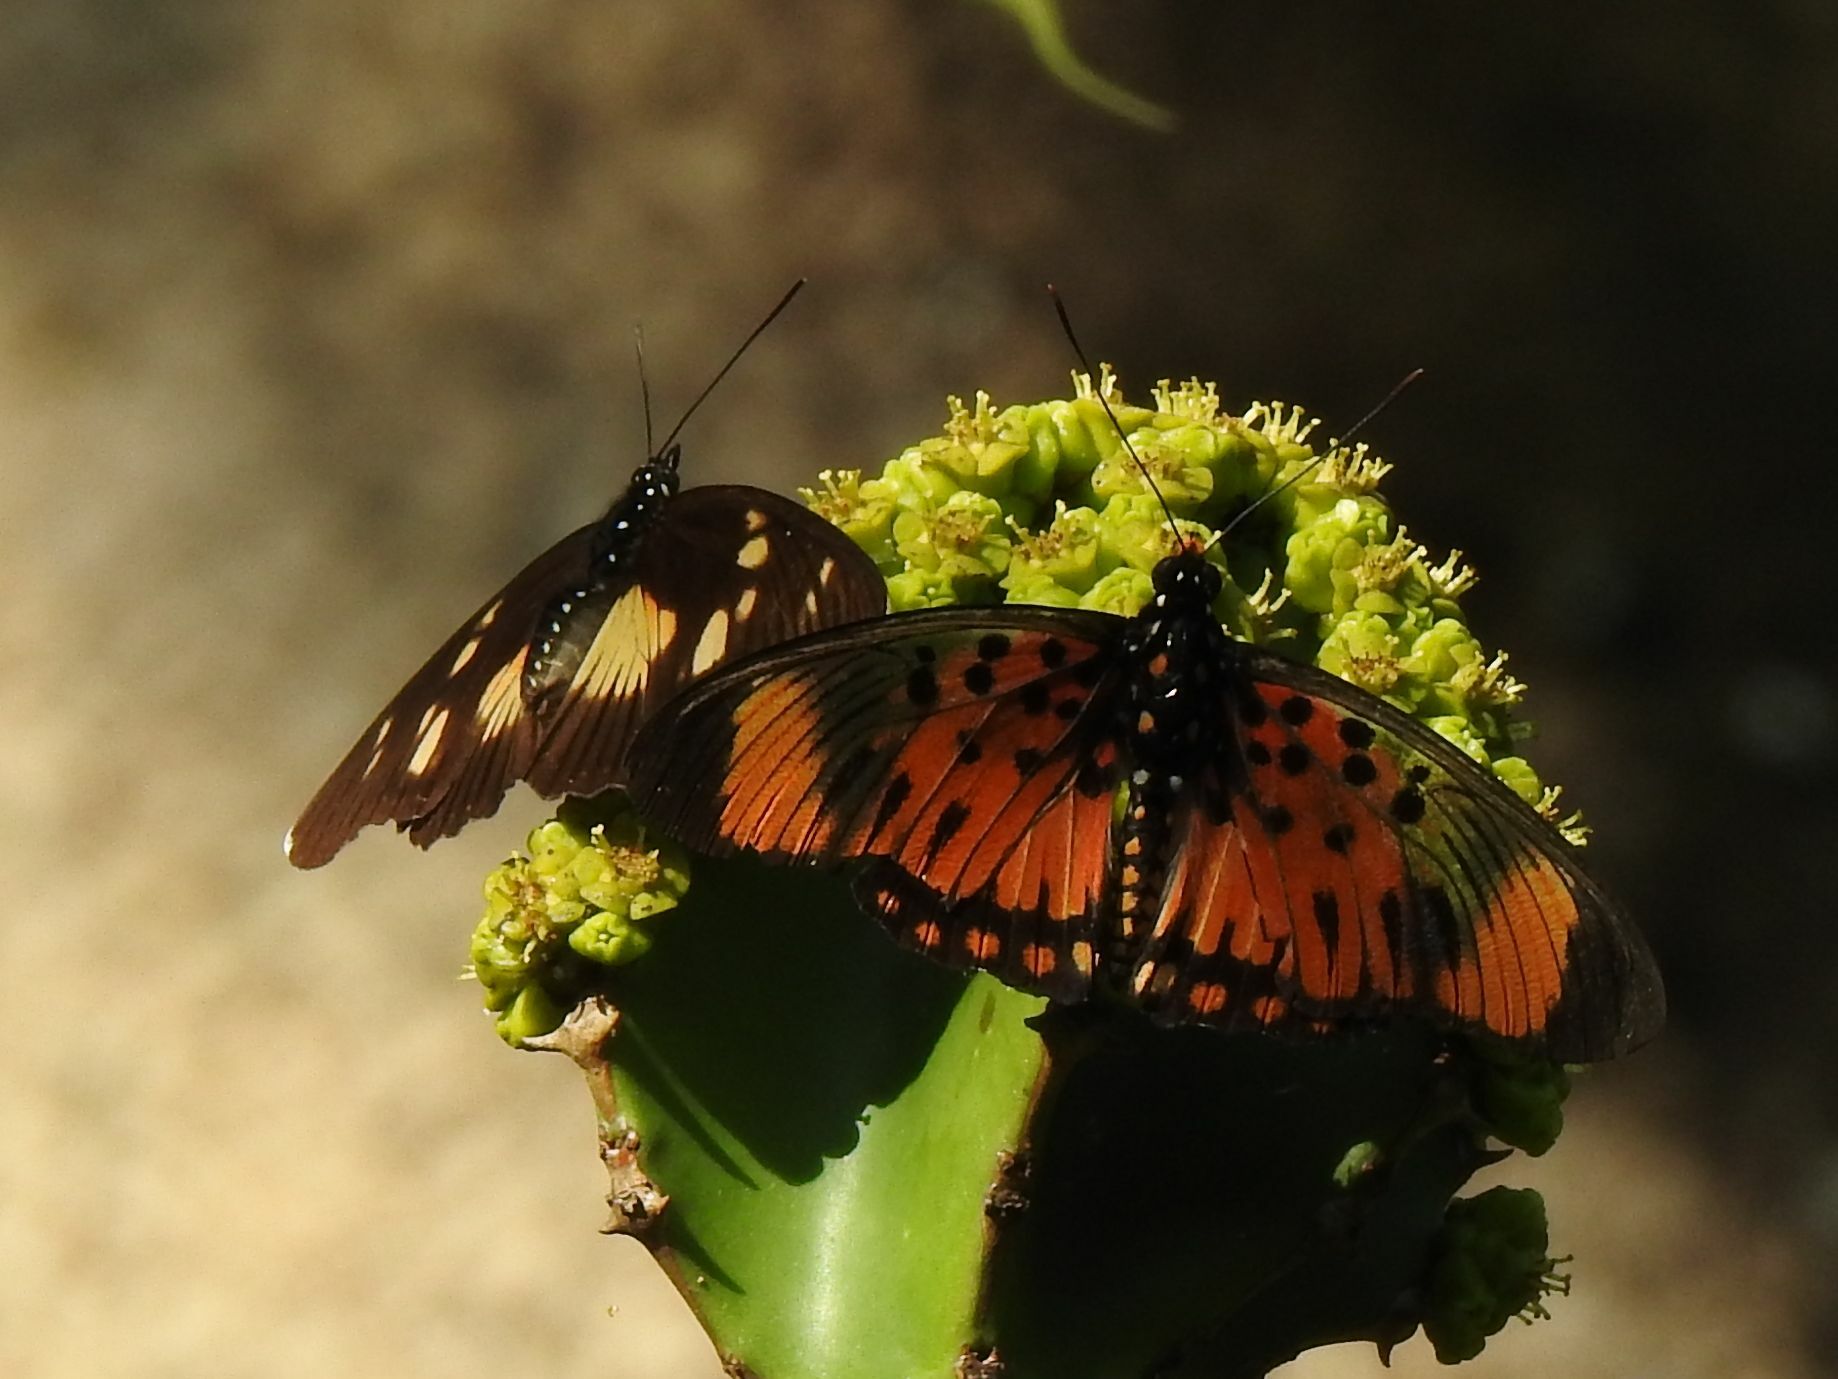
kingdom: Animalia
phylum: Arthropoda
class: Insecta
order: Lepidoptera
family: Nymphalidae
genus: Chloropoea
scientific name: Chloropoea boisduvalii
